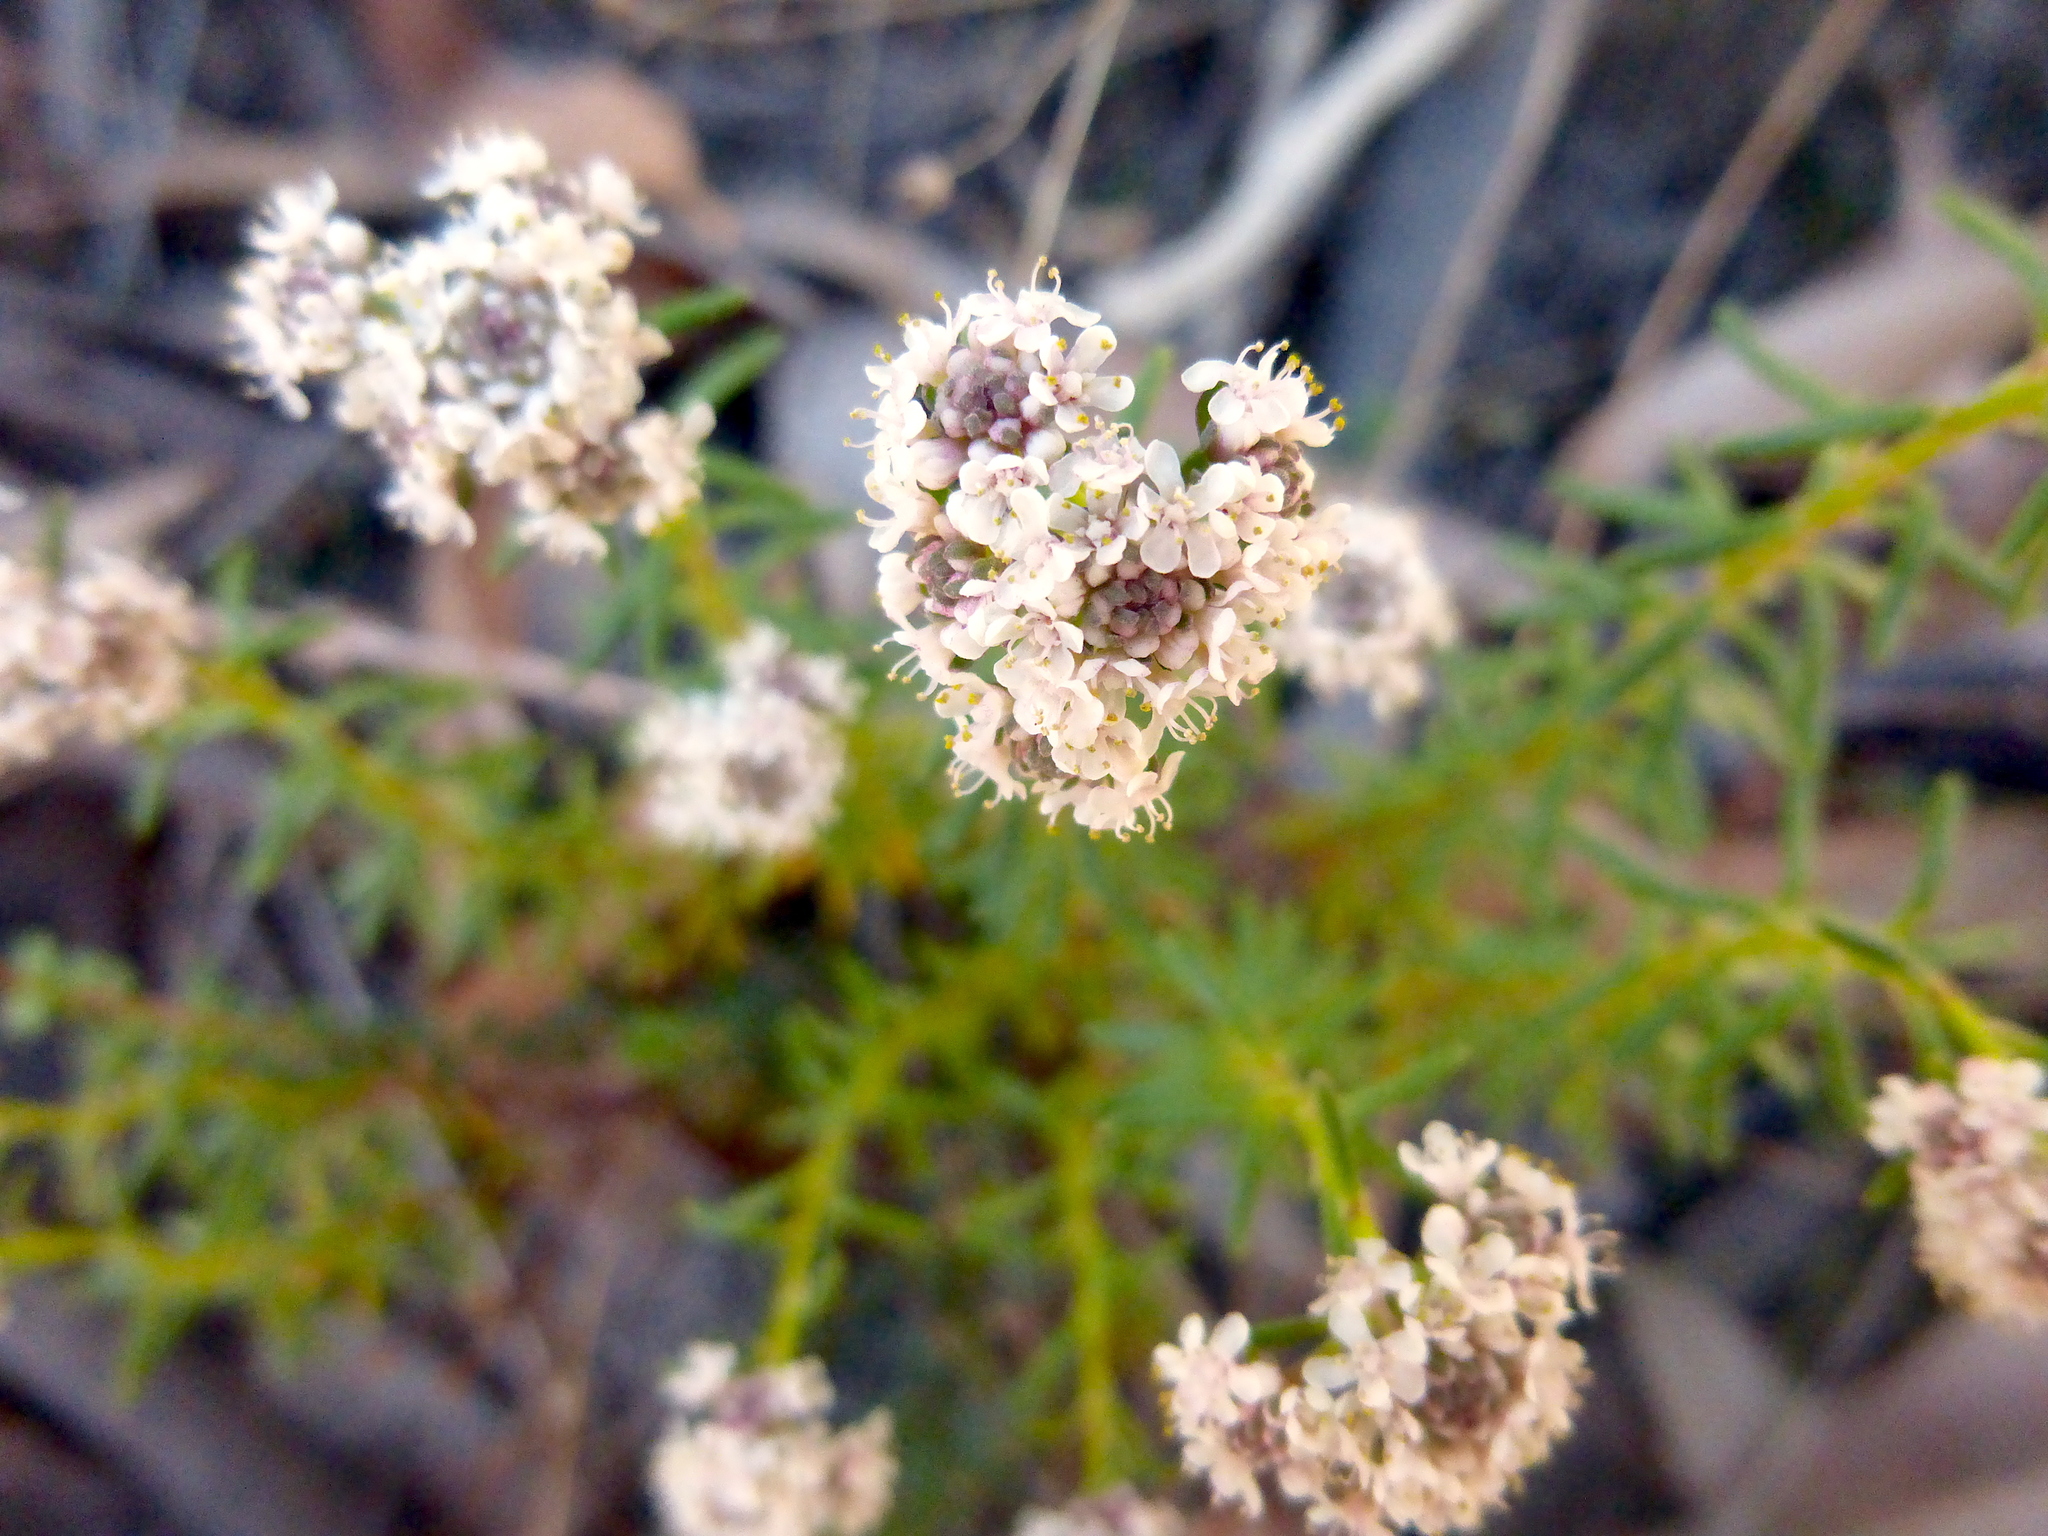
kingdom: Plantae
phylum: Tracheophyta
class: Magnoliopsida
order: Malpighiales
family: Phyllanthaceae
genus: Poranthera
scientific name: Poranthera ericifolia
